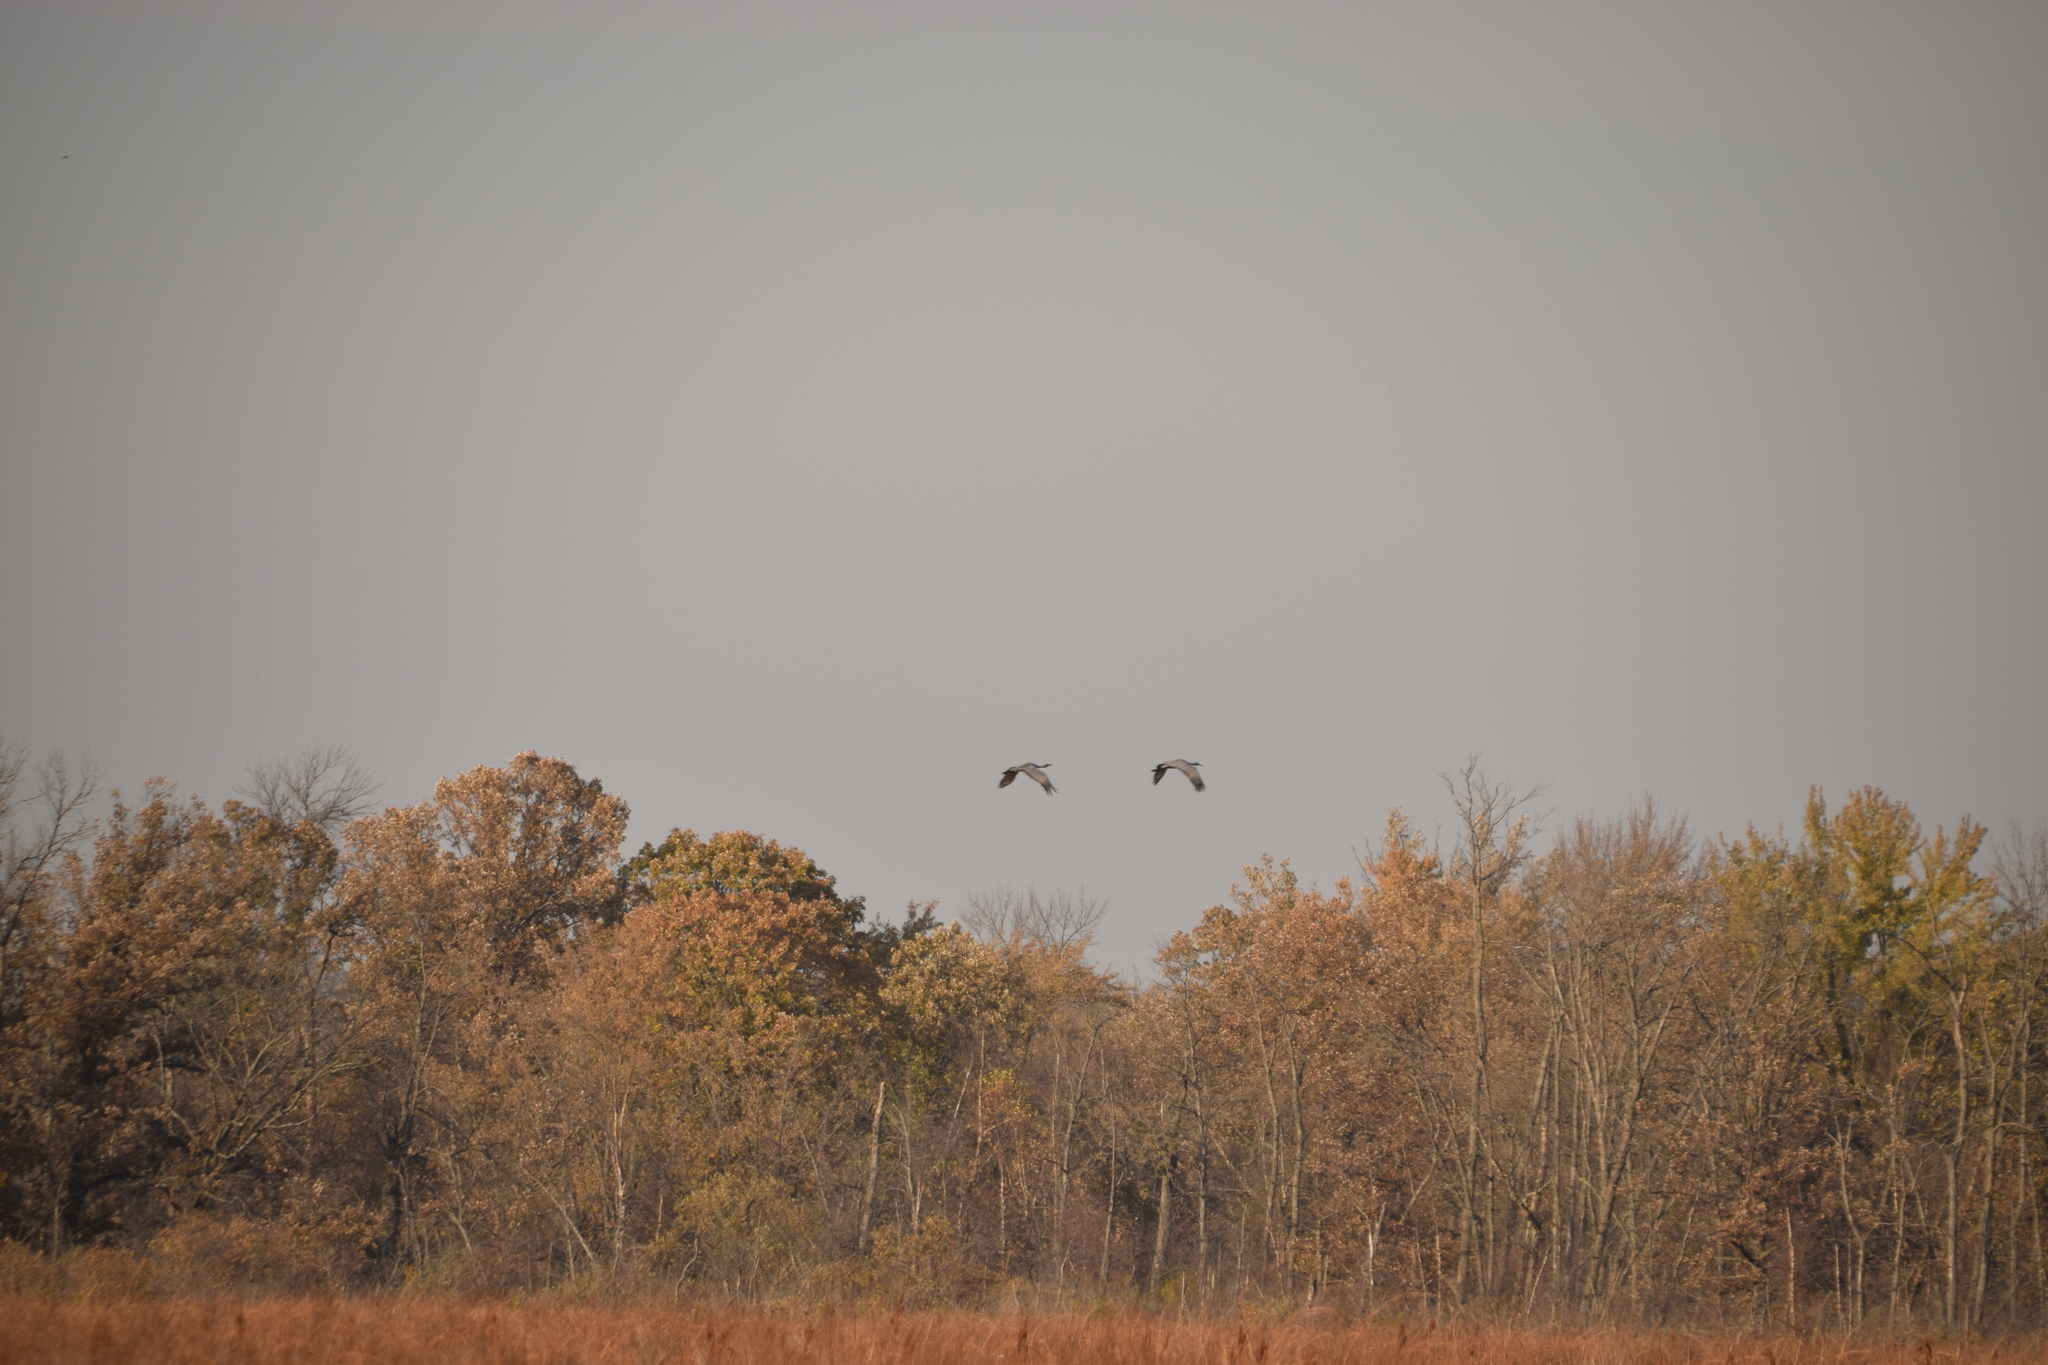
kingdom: Animalia
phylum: Chordata
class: Aves
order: Gruiformes
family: Gruidae
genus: Grus
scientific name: Grus canadensis
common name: Sandhill crane
